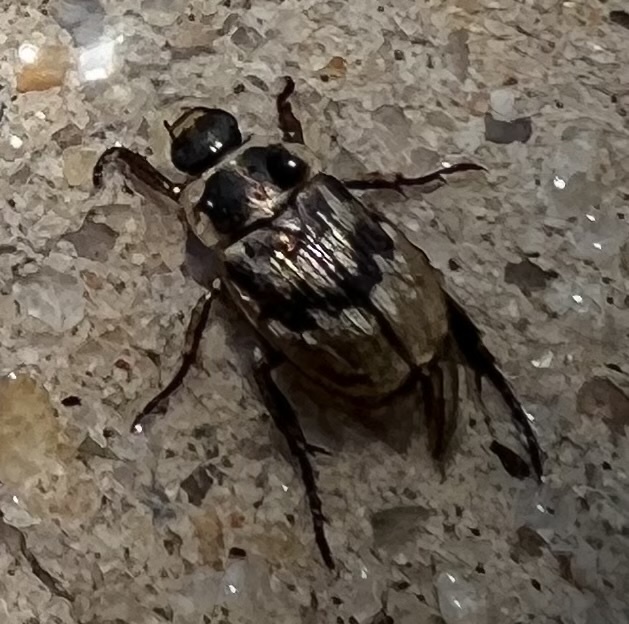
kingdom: Animalia
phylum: Arthropoda
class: Insecta
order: Coleoptera
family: Scarabaeidae
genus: Exomala
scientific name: Exomala orientalis
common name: Oriental beetle
